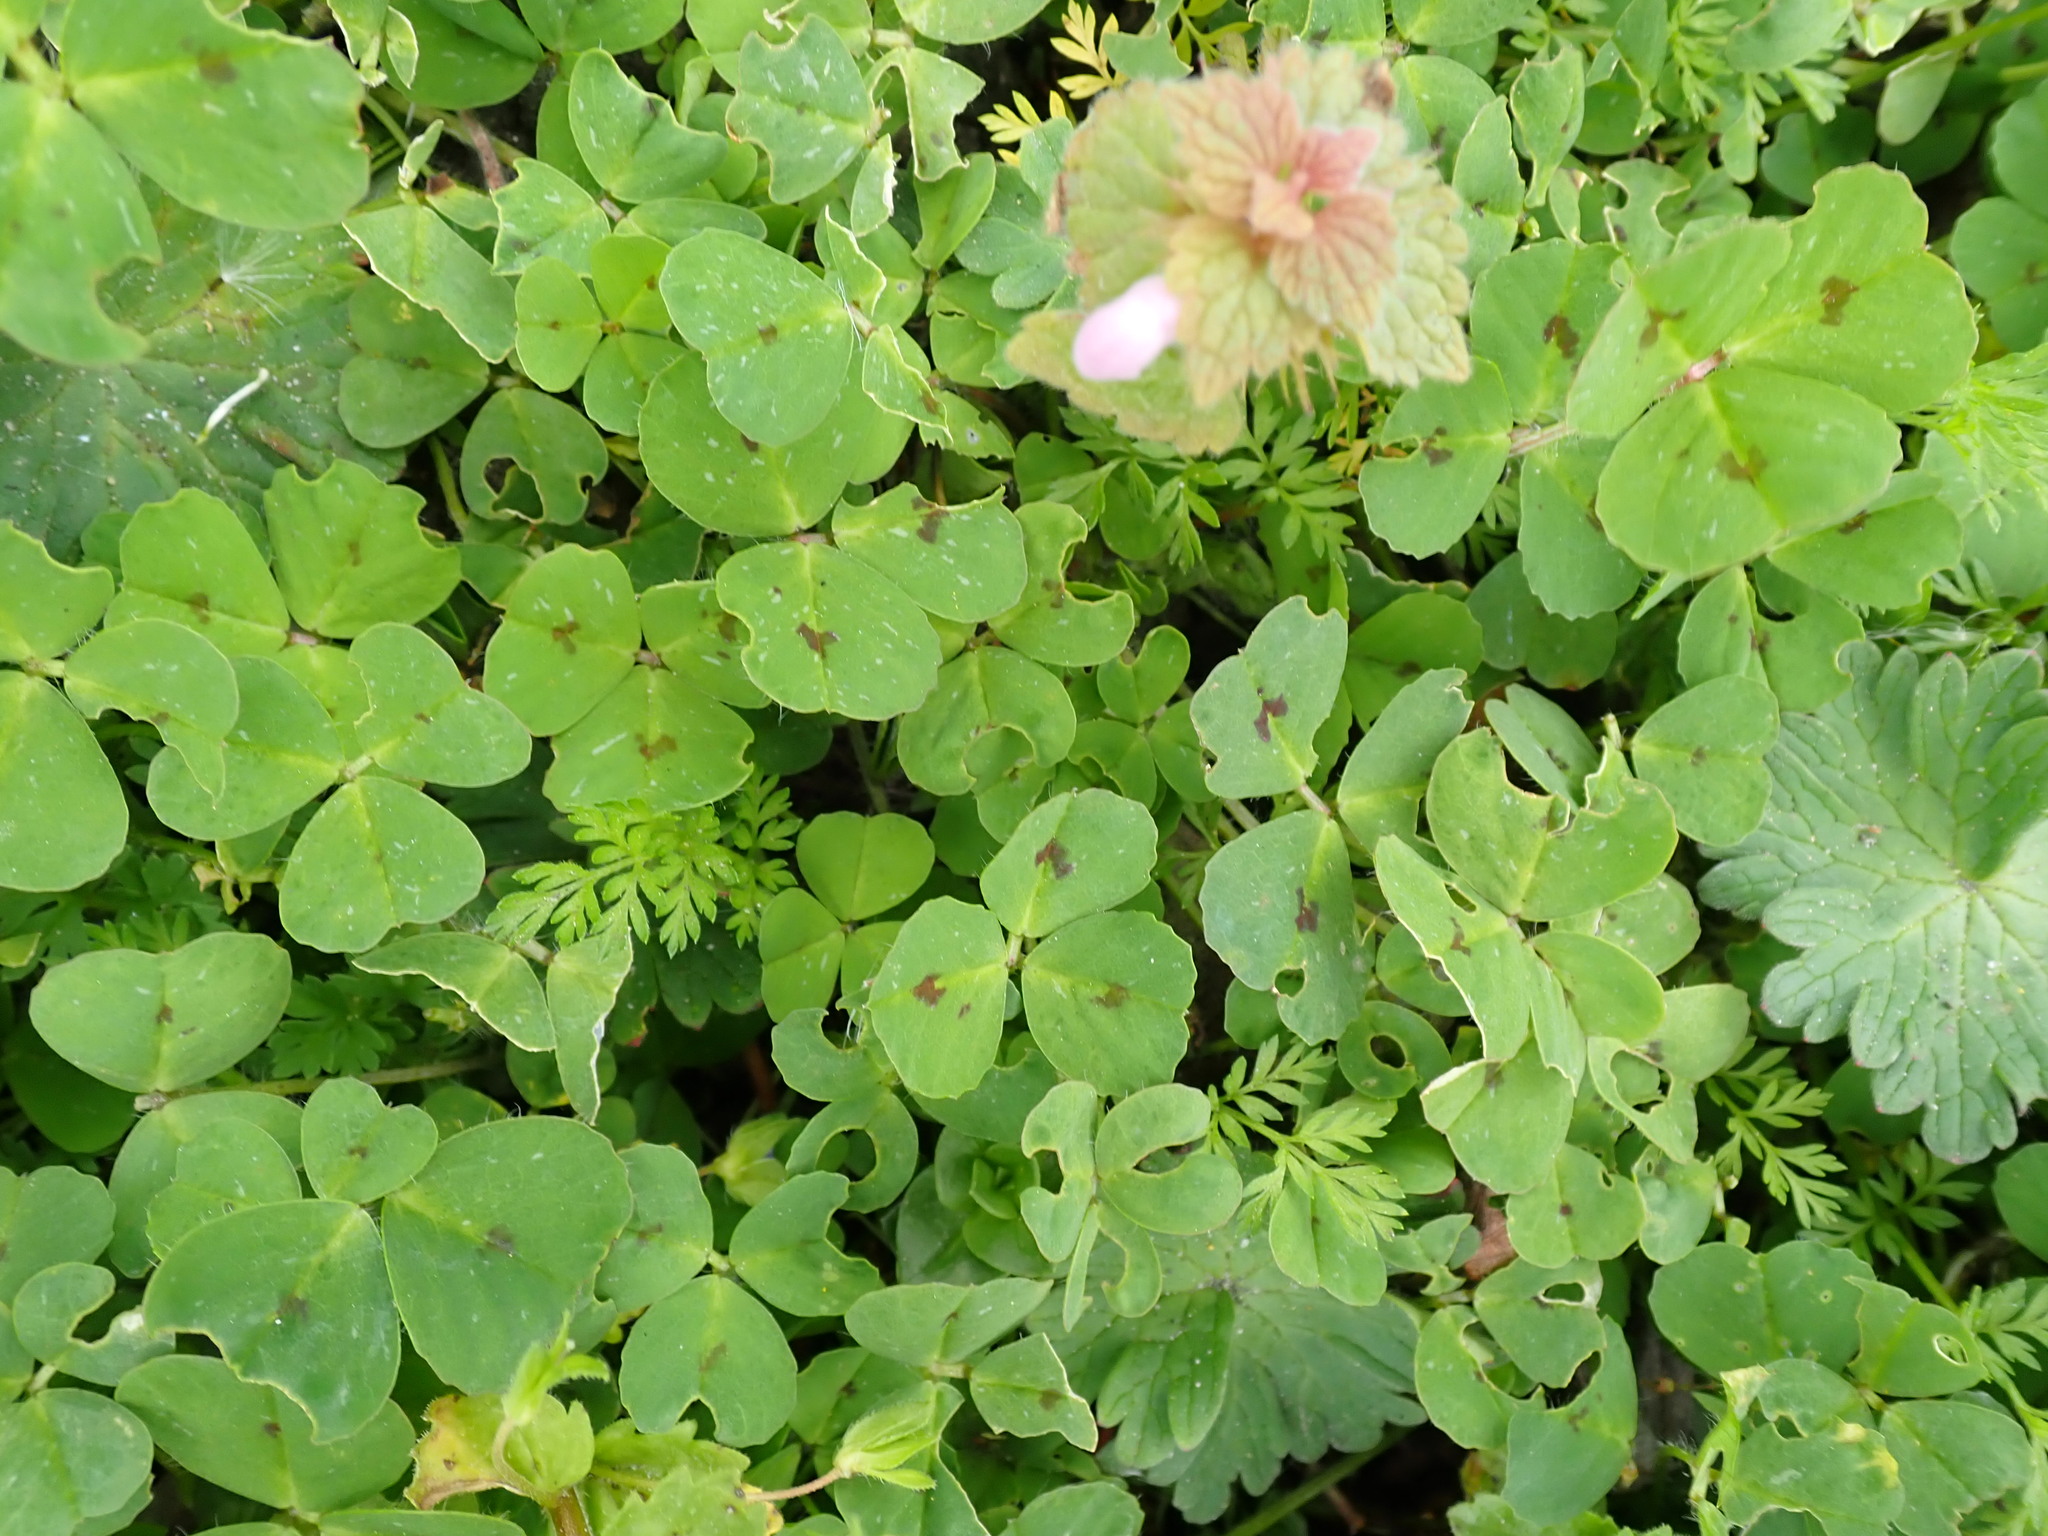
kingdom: Plantae
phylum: Tracheophyta
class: Magnoliopsida
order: Fabales
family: Fabaceae
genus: Medicago
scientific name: Medicago arabica
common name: Spotted medick
